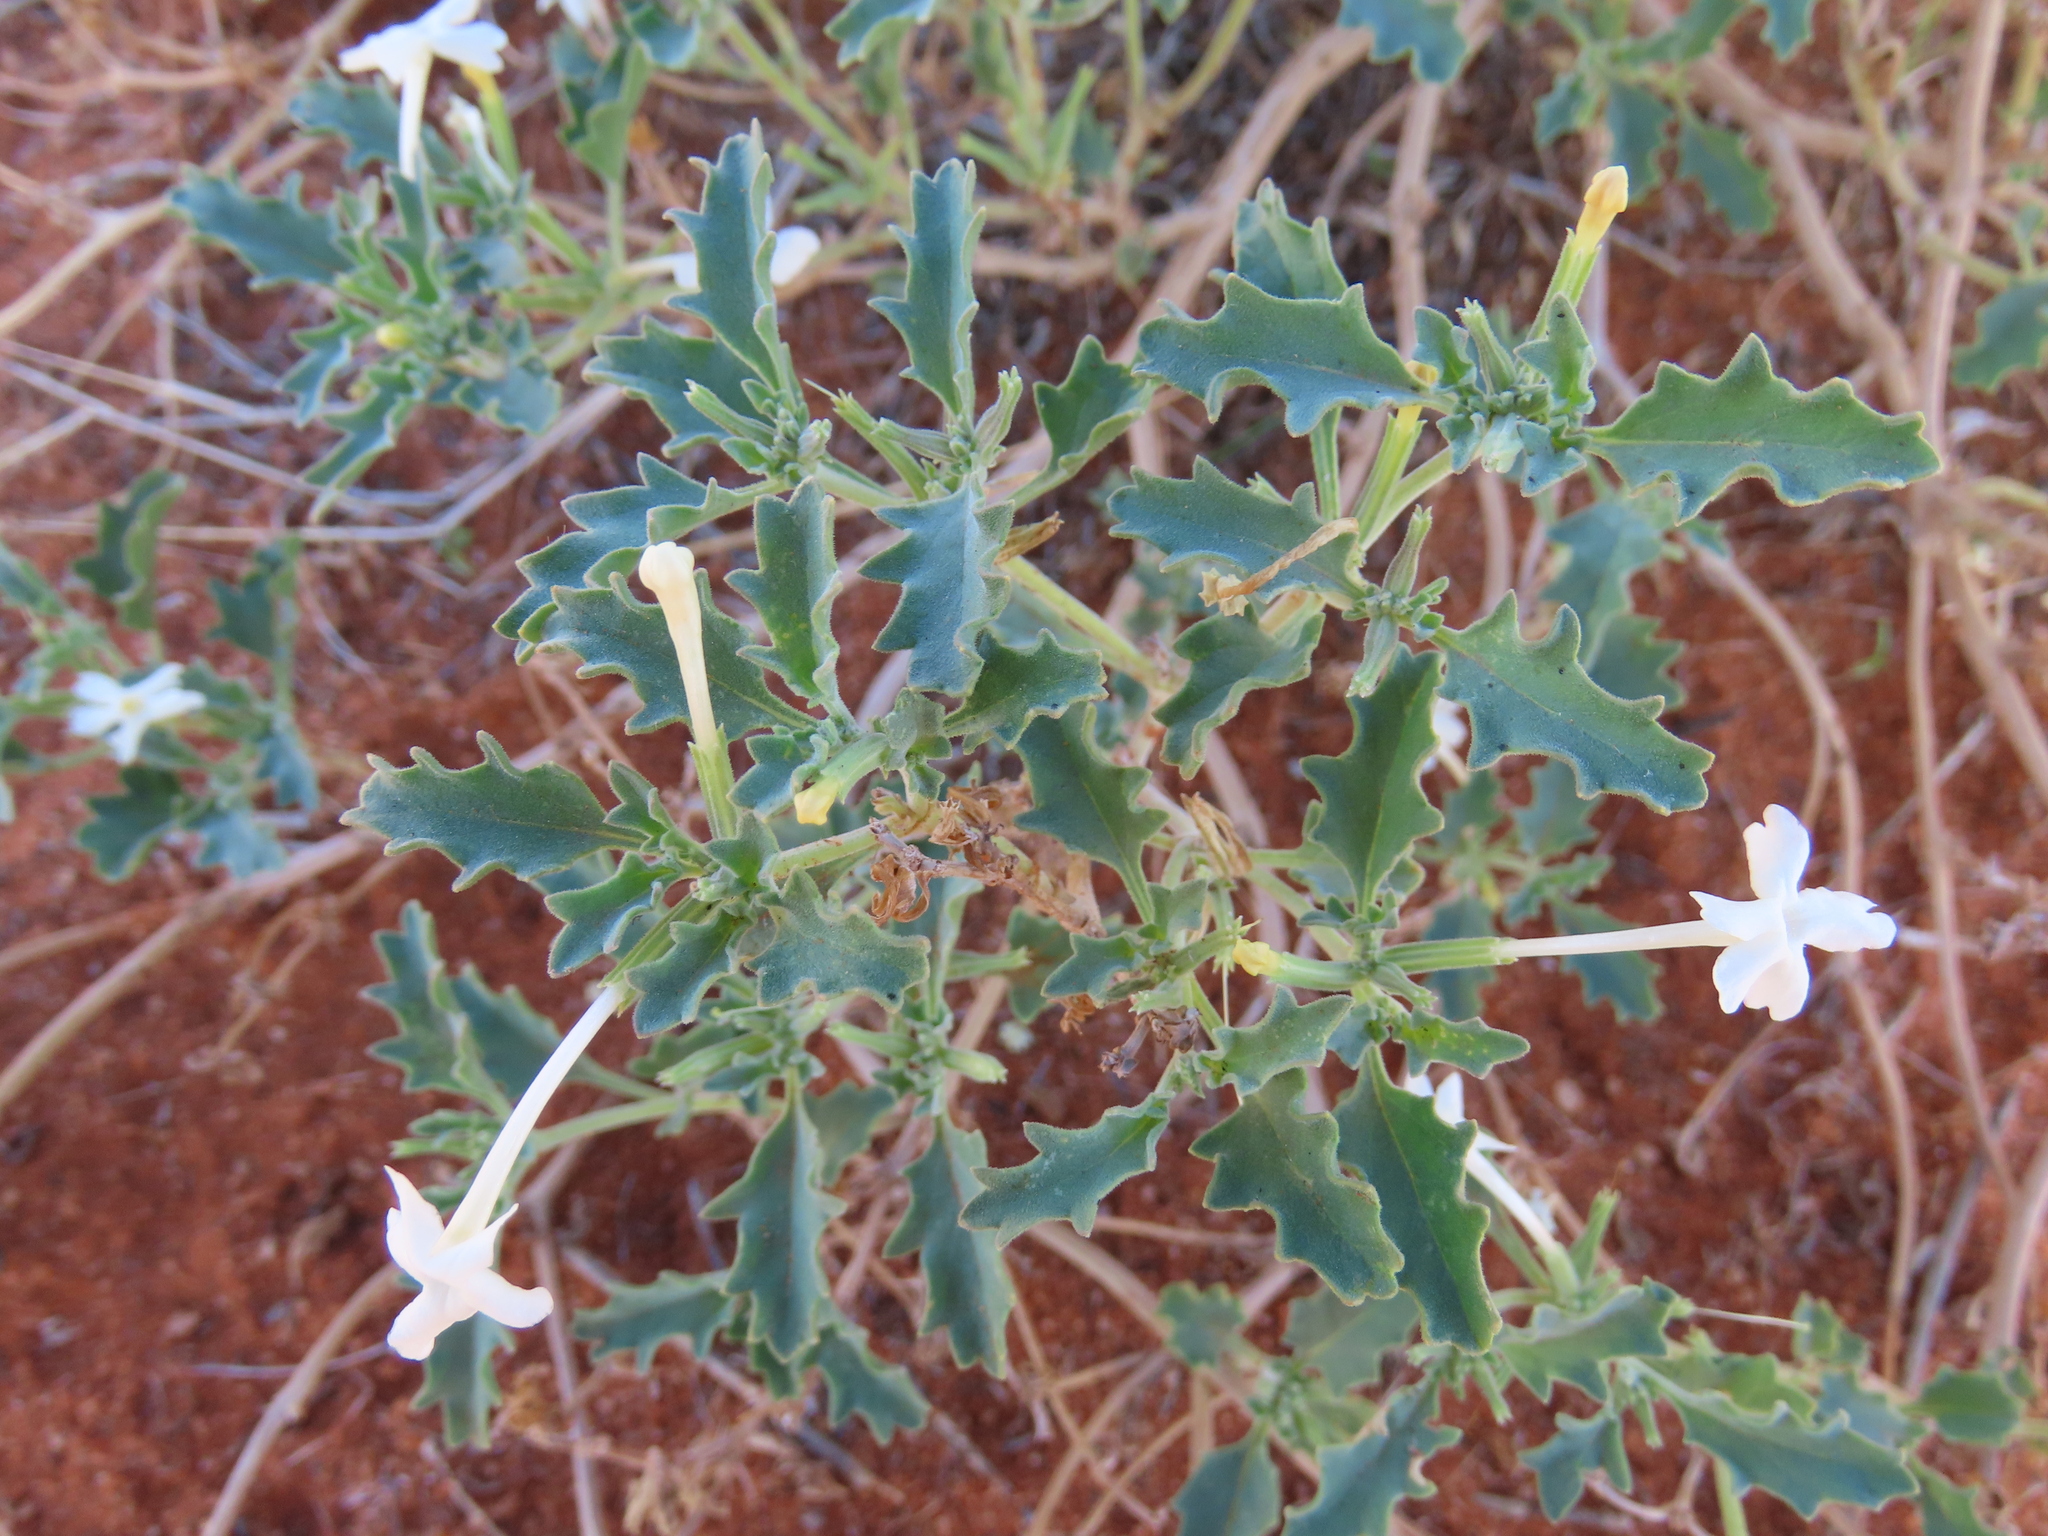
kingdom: Plantae
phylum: Tracheophyta
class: Magnoliopsida
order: Lamiales
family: Verbenaceae
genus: Chascanum
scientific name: Chascanum pumilum
